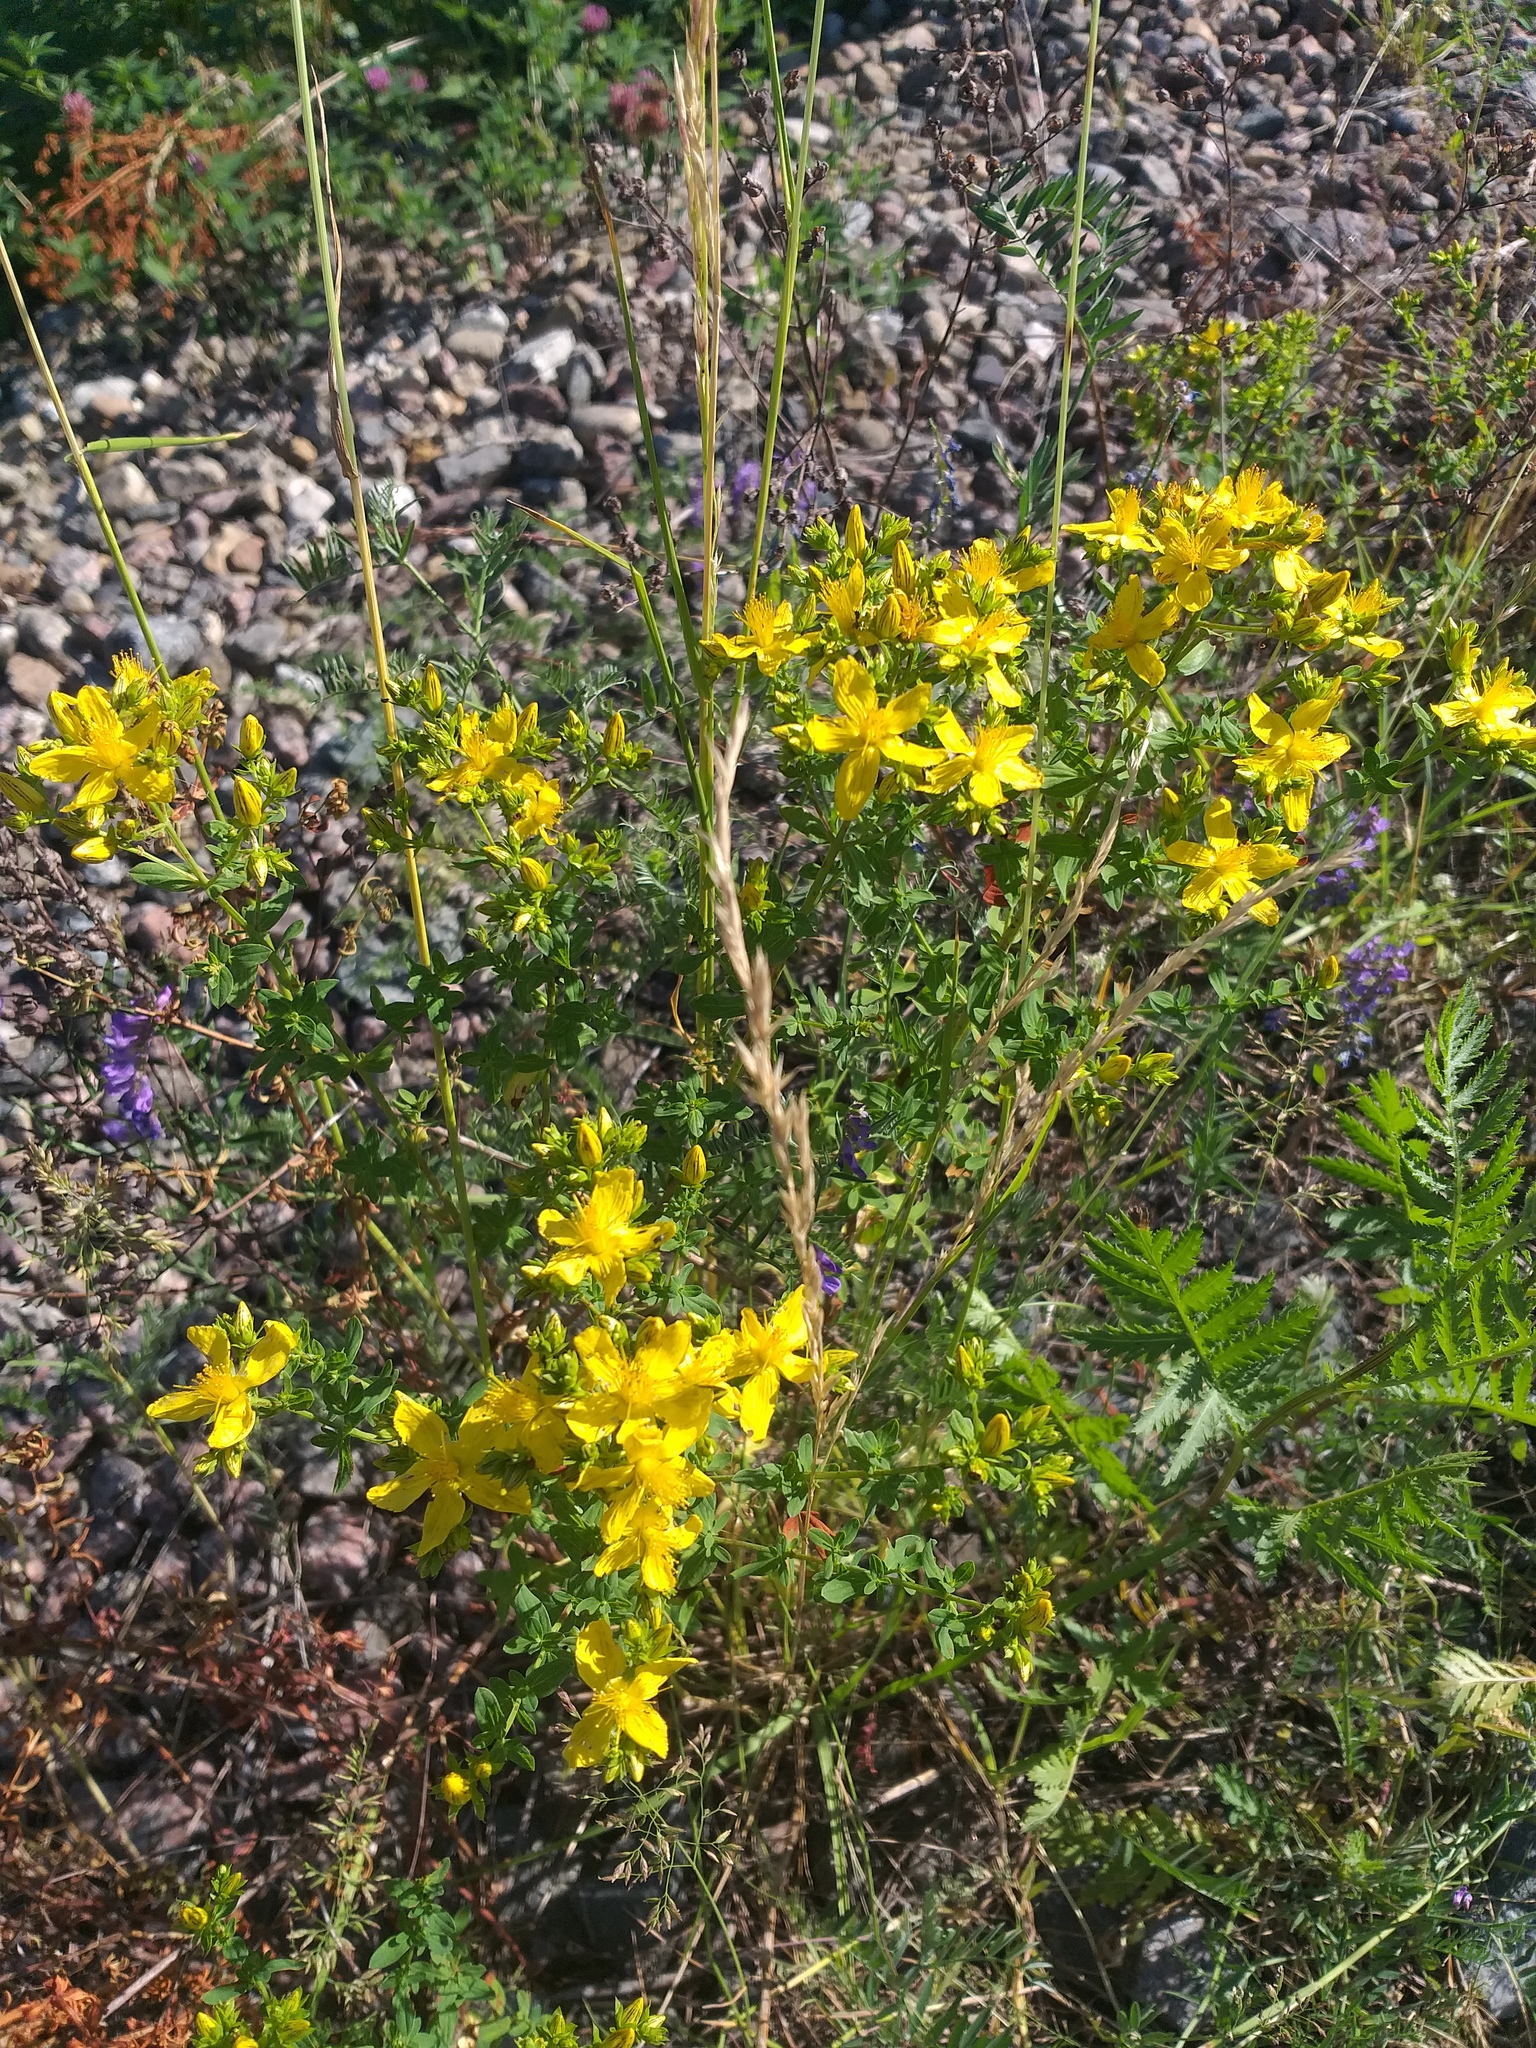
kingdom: Plantae
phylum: Tracheophyta
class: Magnoliopsida
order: Malpighiales
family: Hypericaceae
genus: Hypericum
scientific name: Hypericum perforatum
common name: Common st. johnswort
